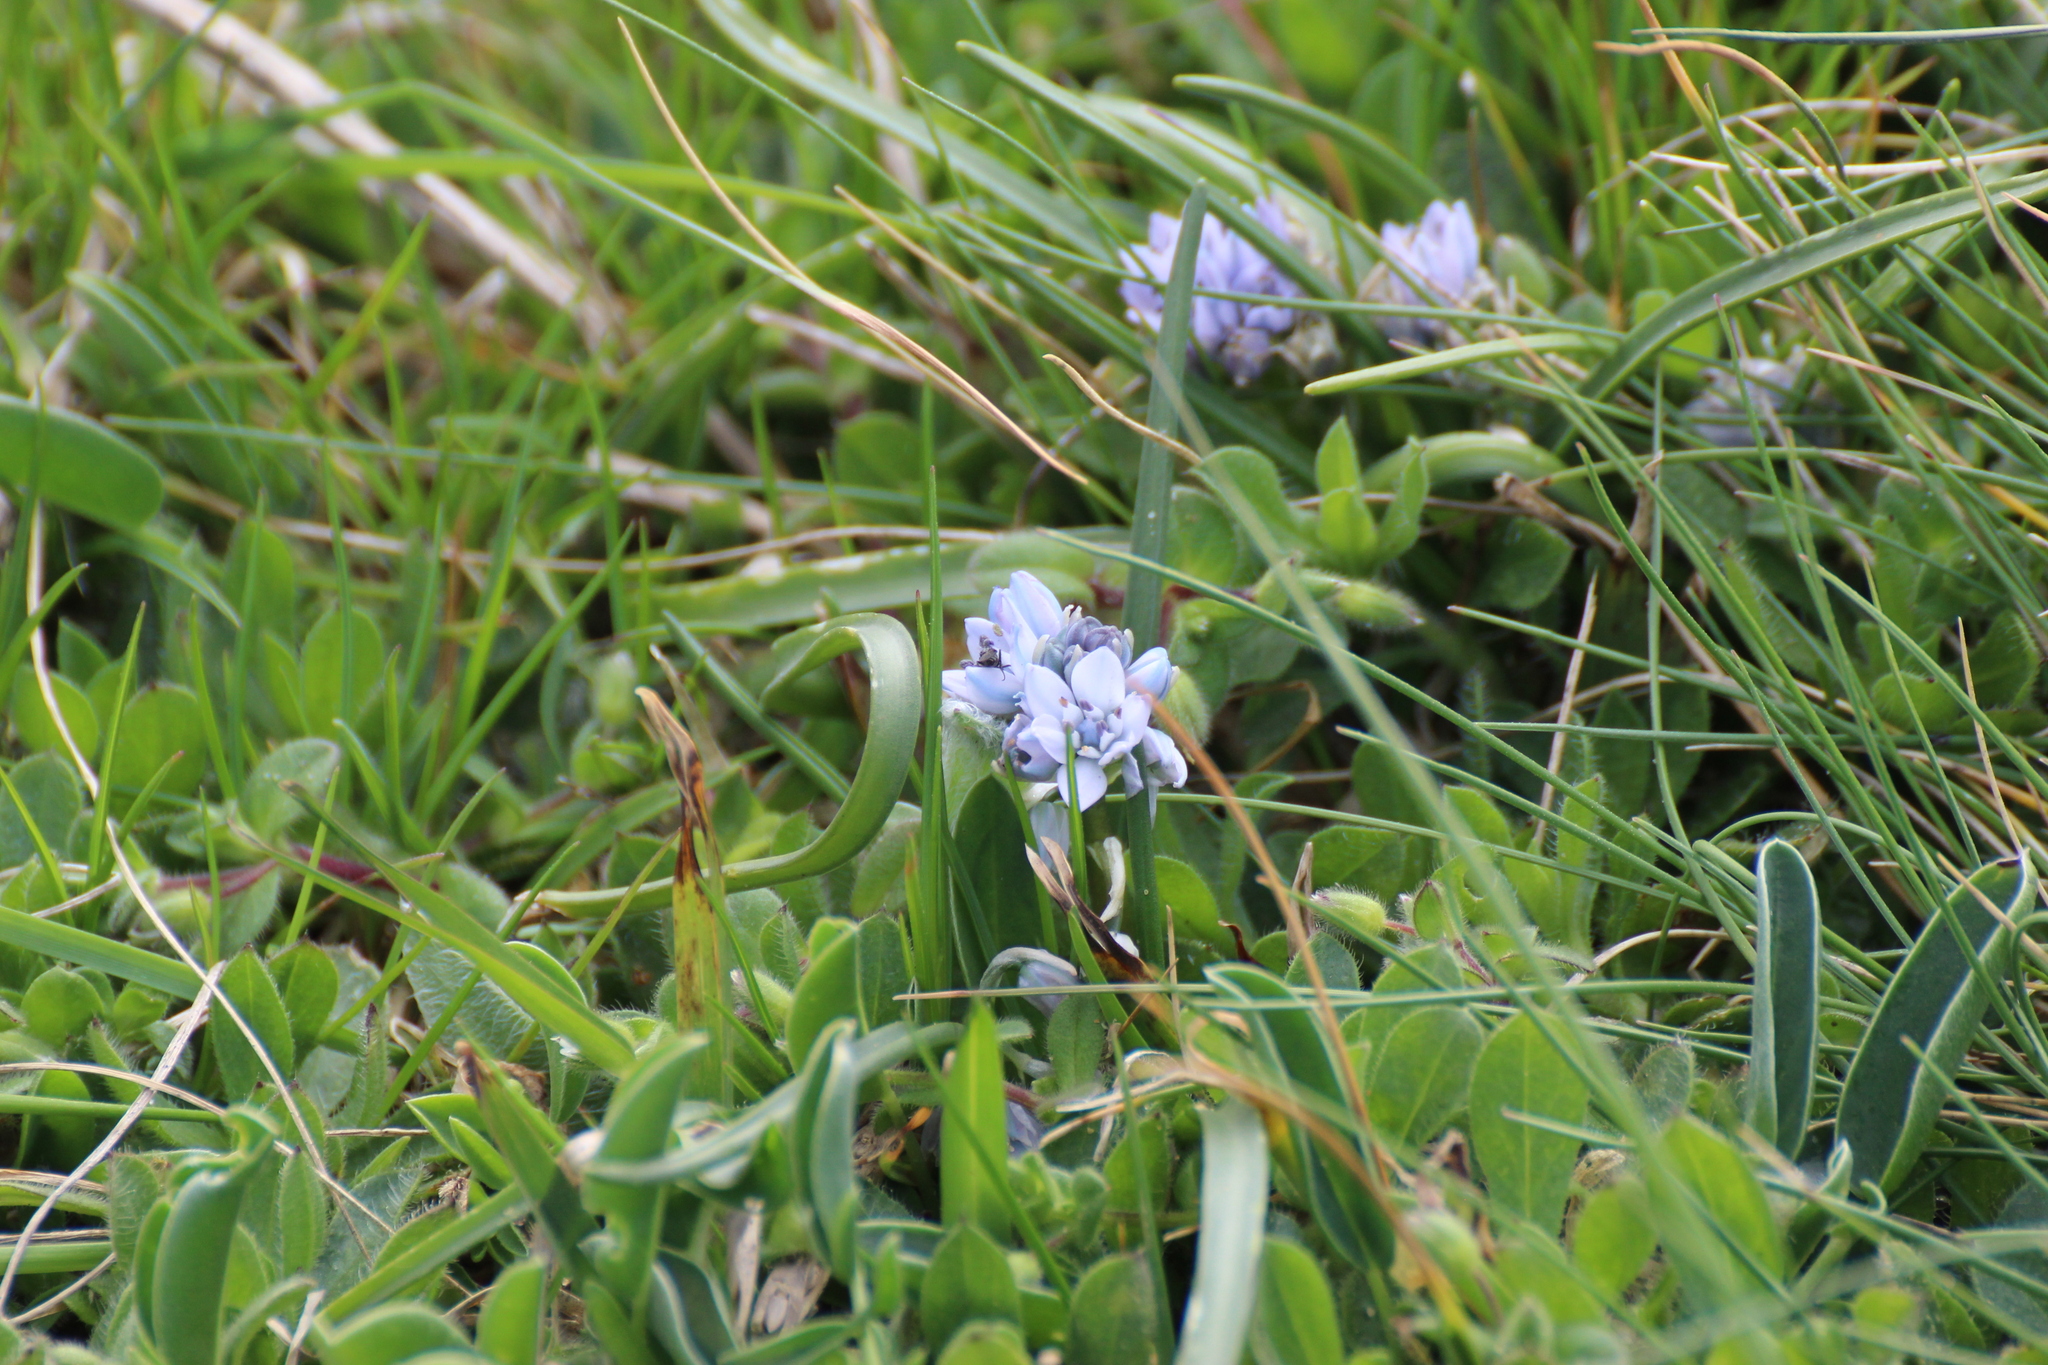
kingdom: Plantae
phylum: Tracheophyta
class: Liliopsida
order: Asparagales
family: Asparagaceae
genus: Scilla
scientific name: Scilla verna
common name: Spring squill
